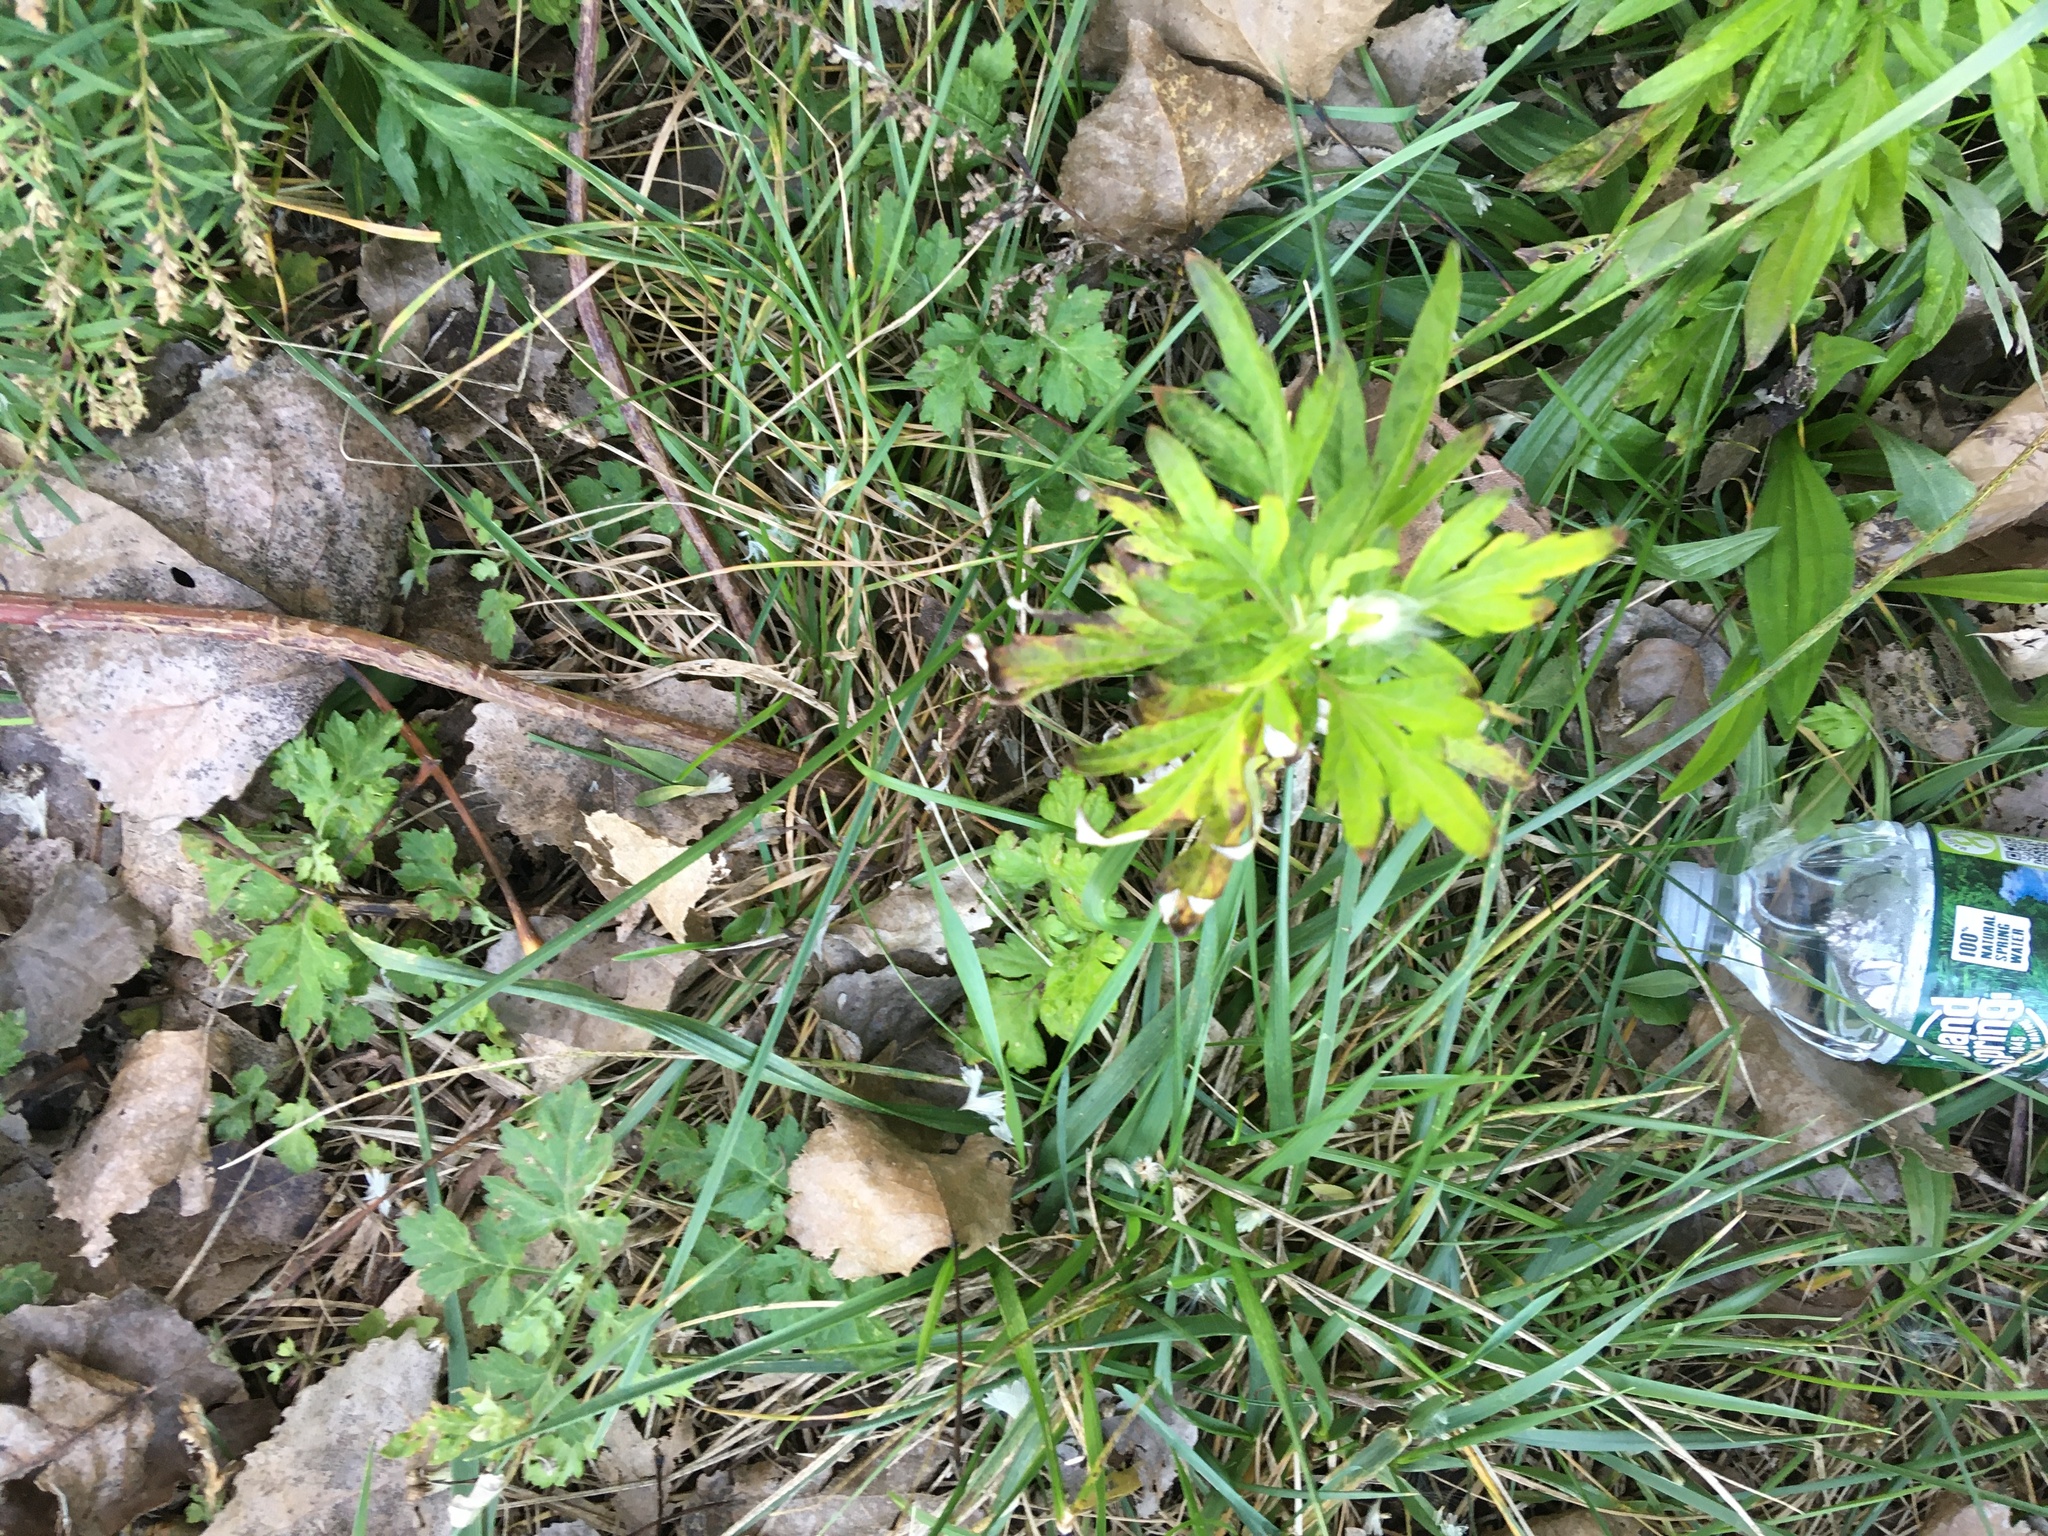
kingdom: Plantae
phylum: Tracheophyta
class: Magnoliopsida
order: Asterales
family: Asteraceae
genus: Artemisia
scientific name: Artemisia vulgaris
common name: Mugwort
